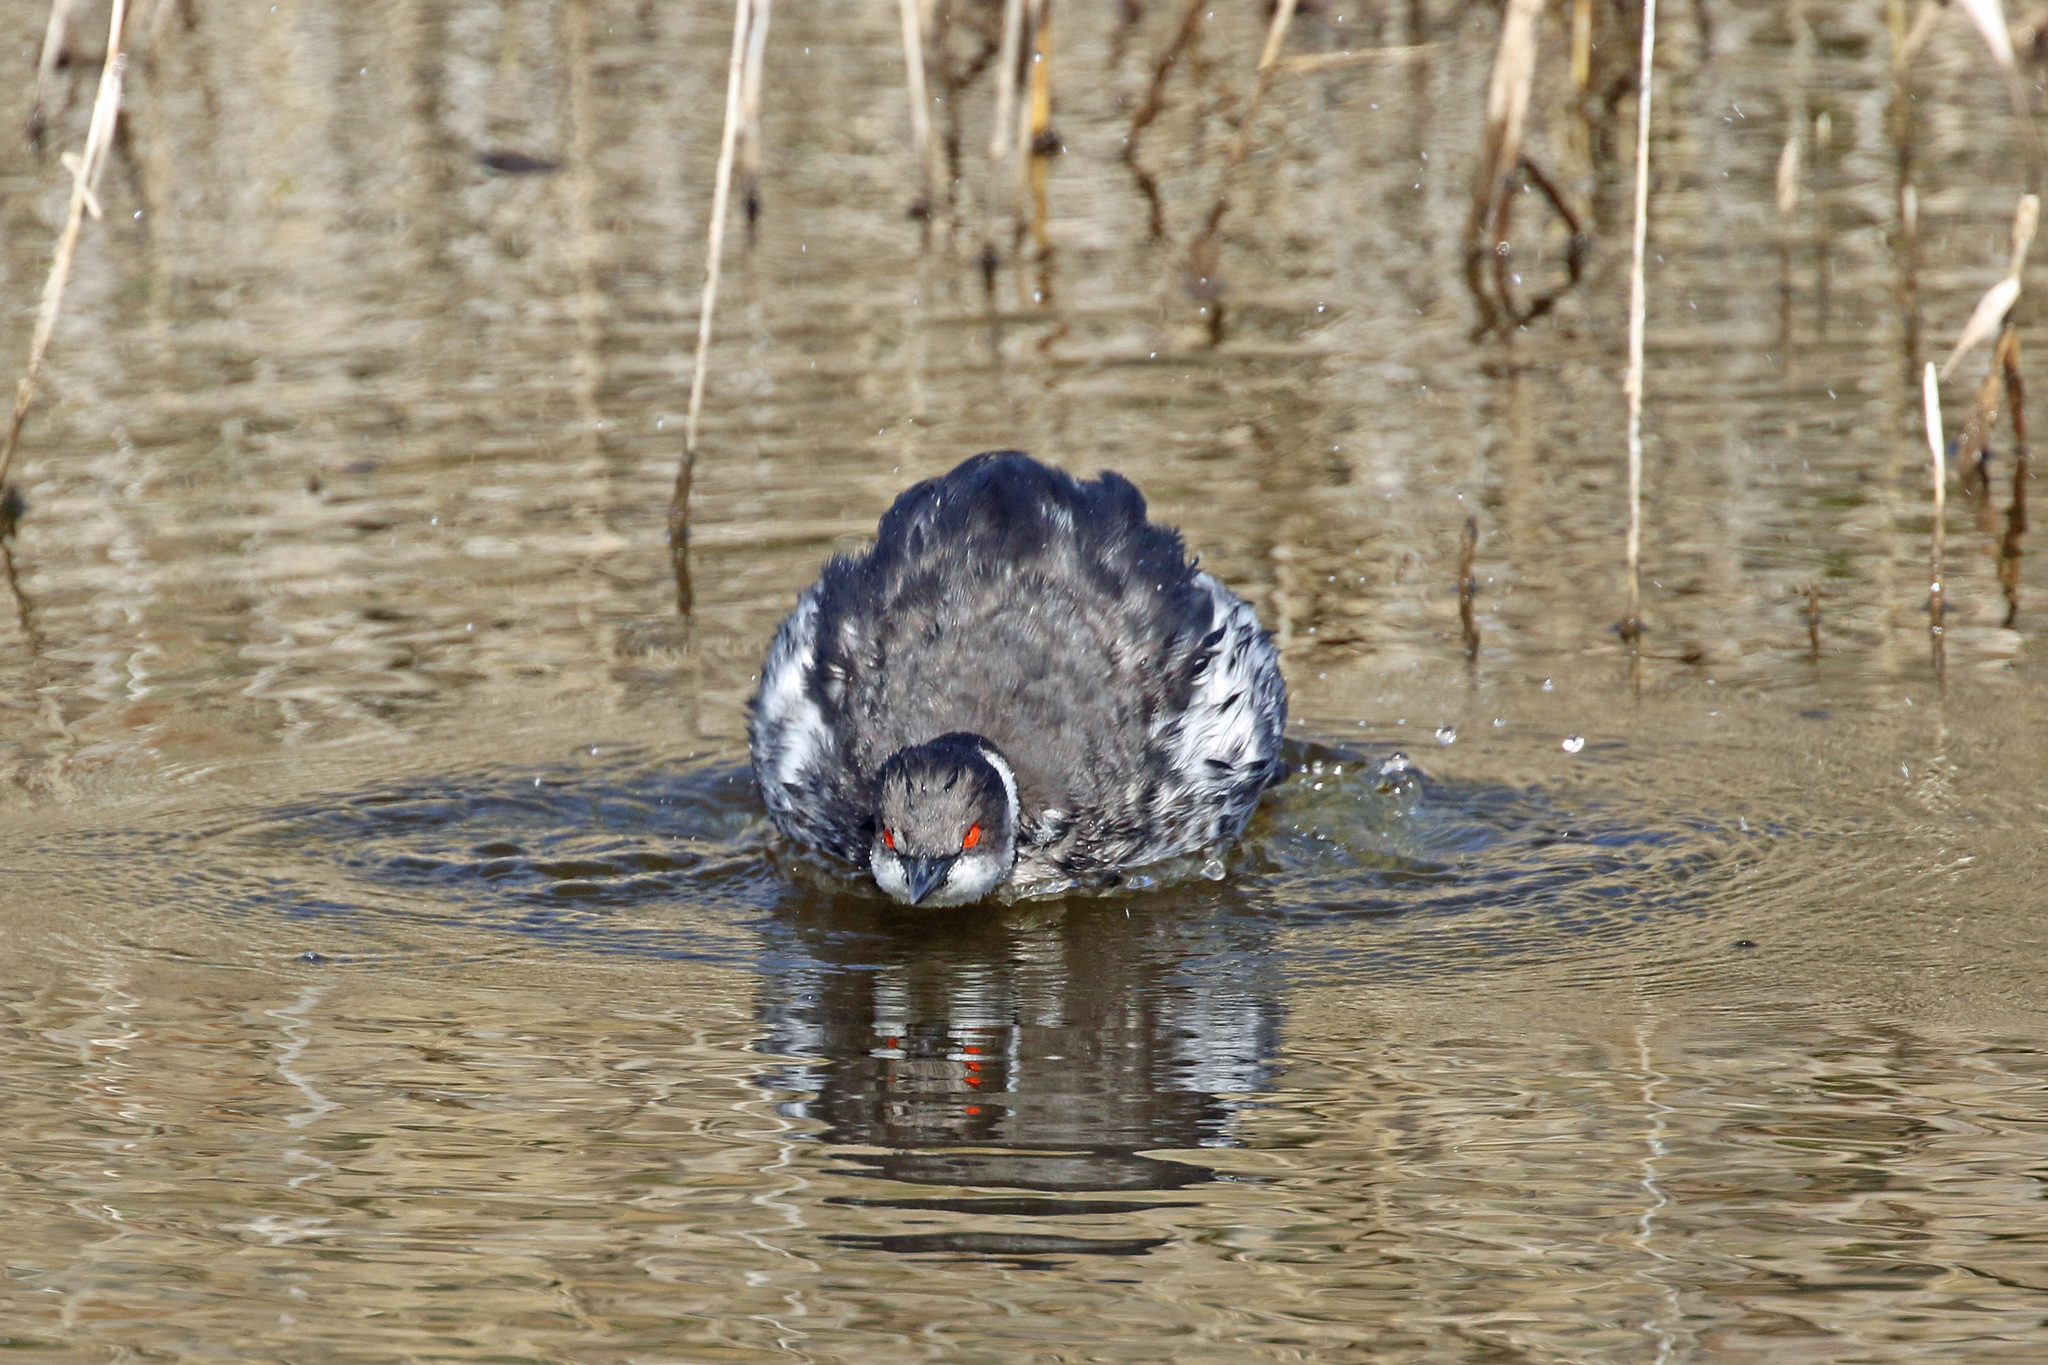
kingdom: Animalia
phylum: Chordata
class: Aves
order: Podicipediformes
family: Podicipedidae
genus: Podiceps
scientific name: Podiceps nigricollis
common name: Black-necked grebe
